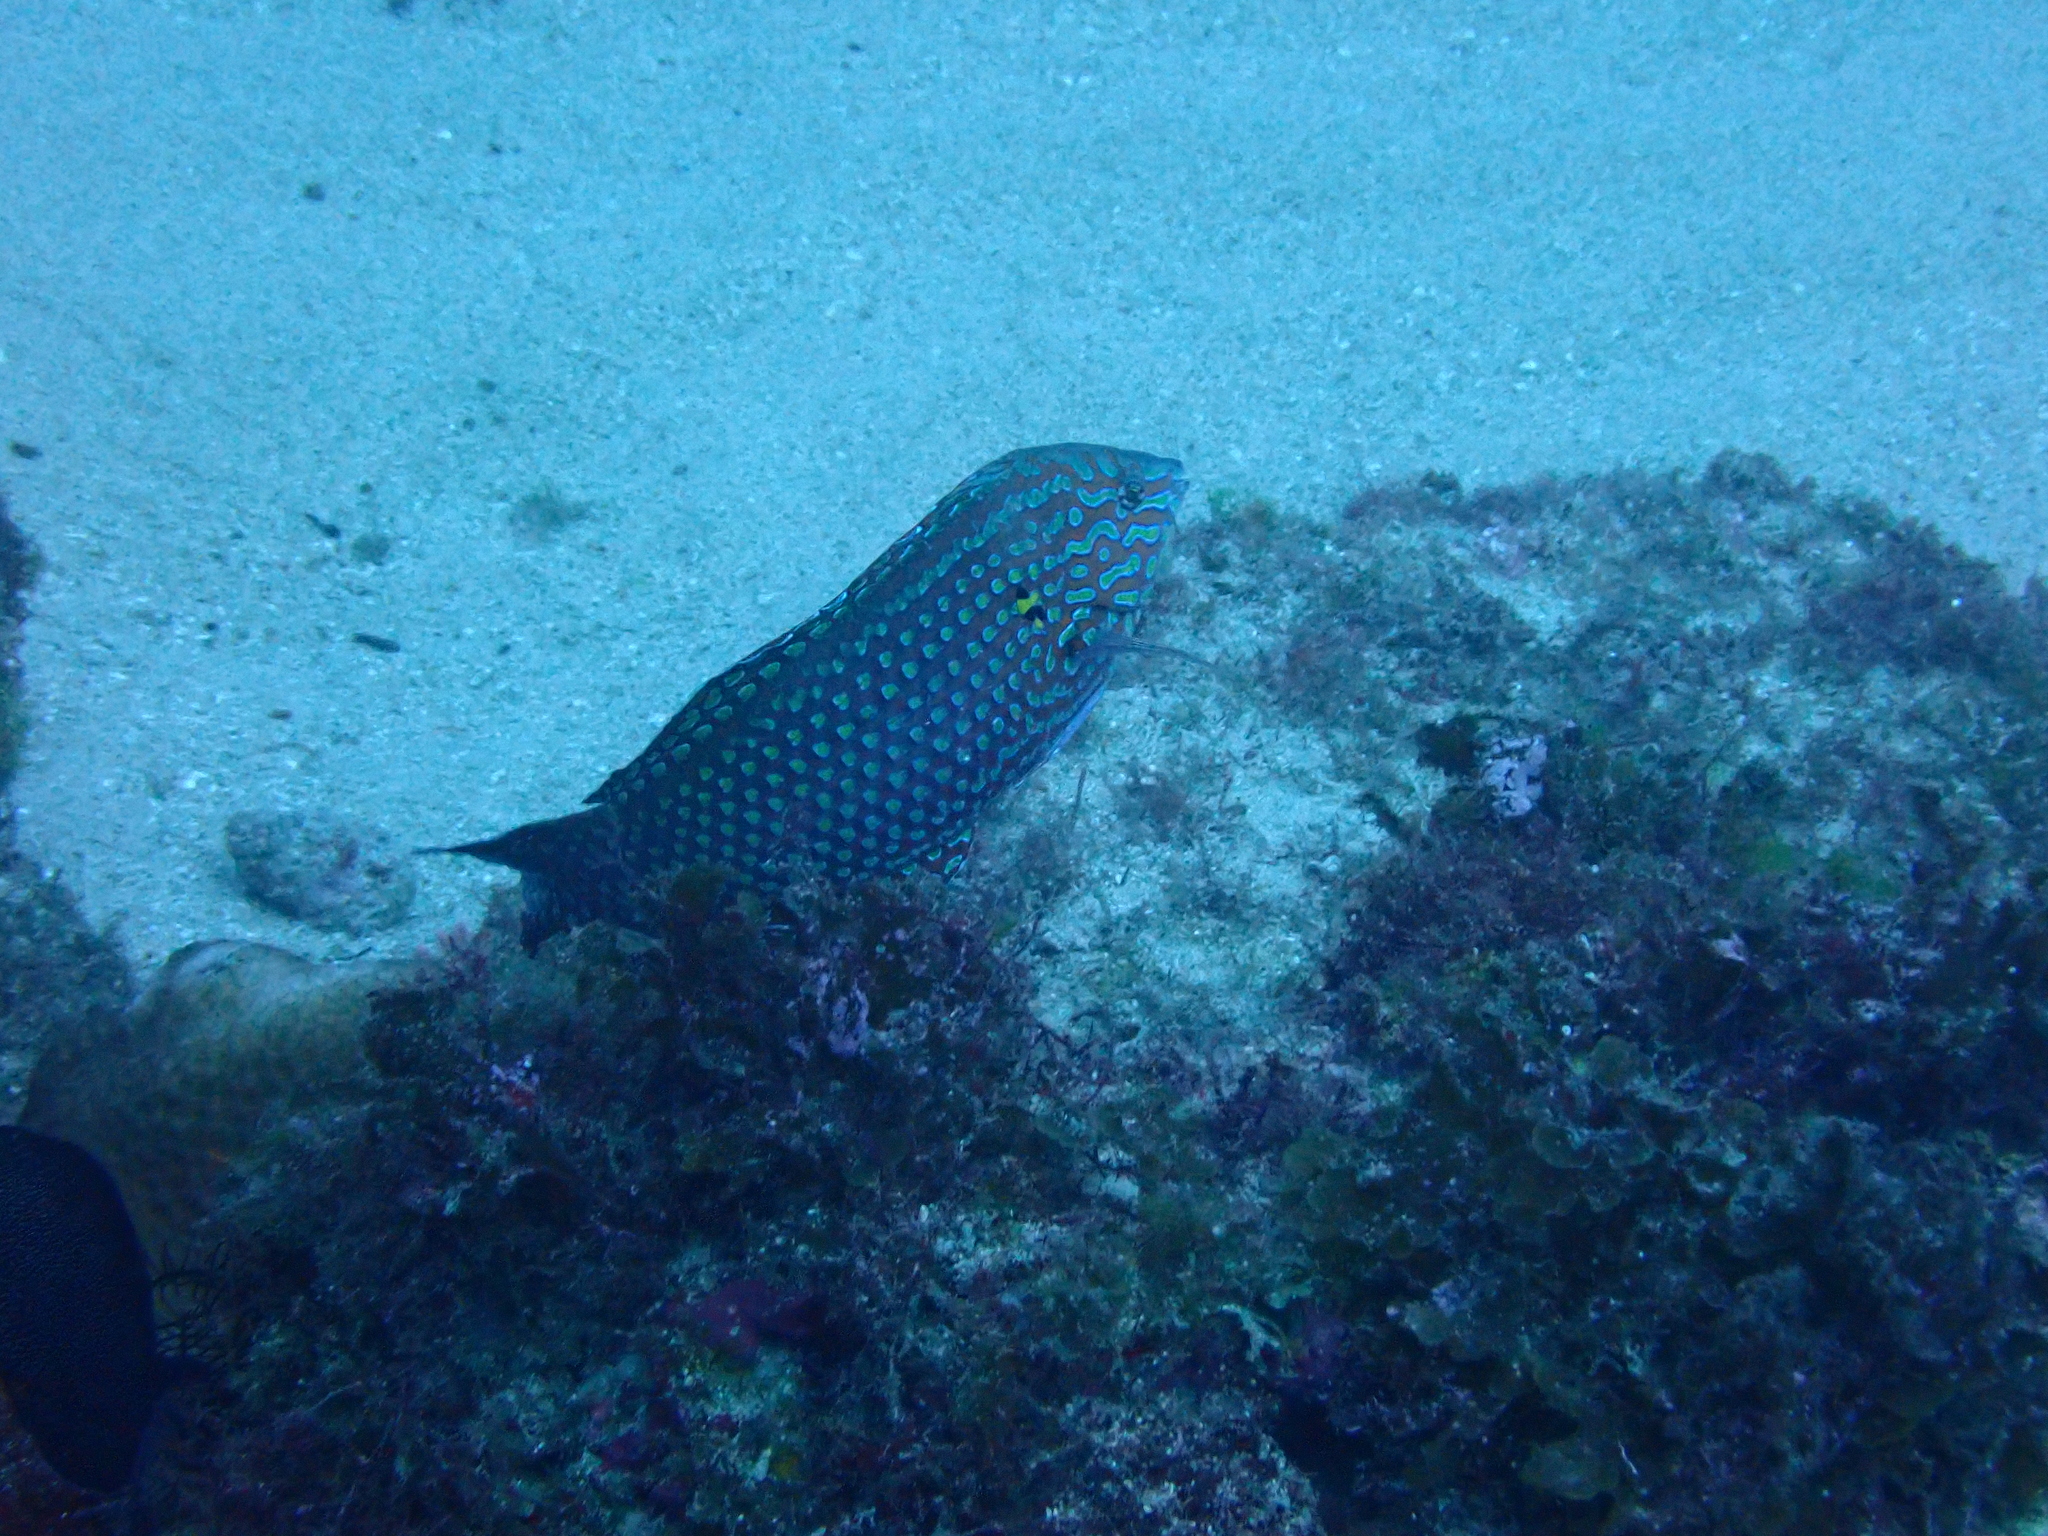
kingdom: Animalia
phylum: Chordata
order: Perciformes
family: Labridae
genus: Macropharyngodon
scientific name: Macropharyngodon meleagris
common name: Leopard wrasse
